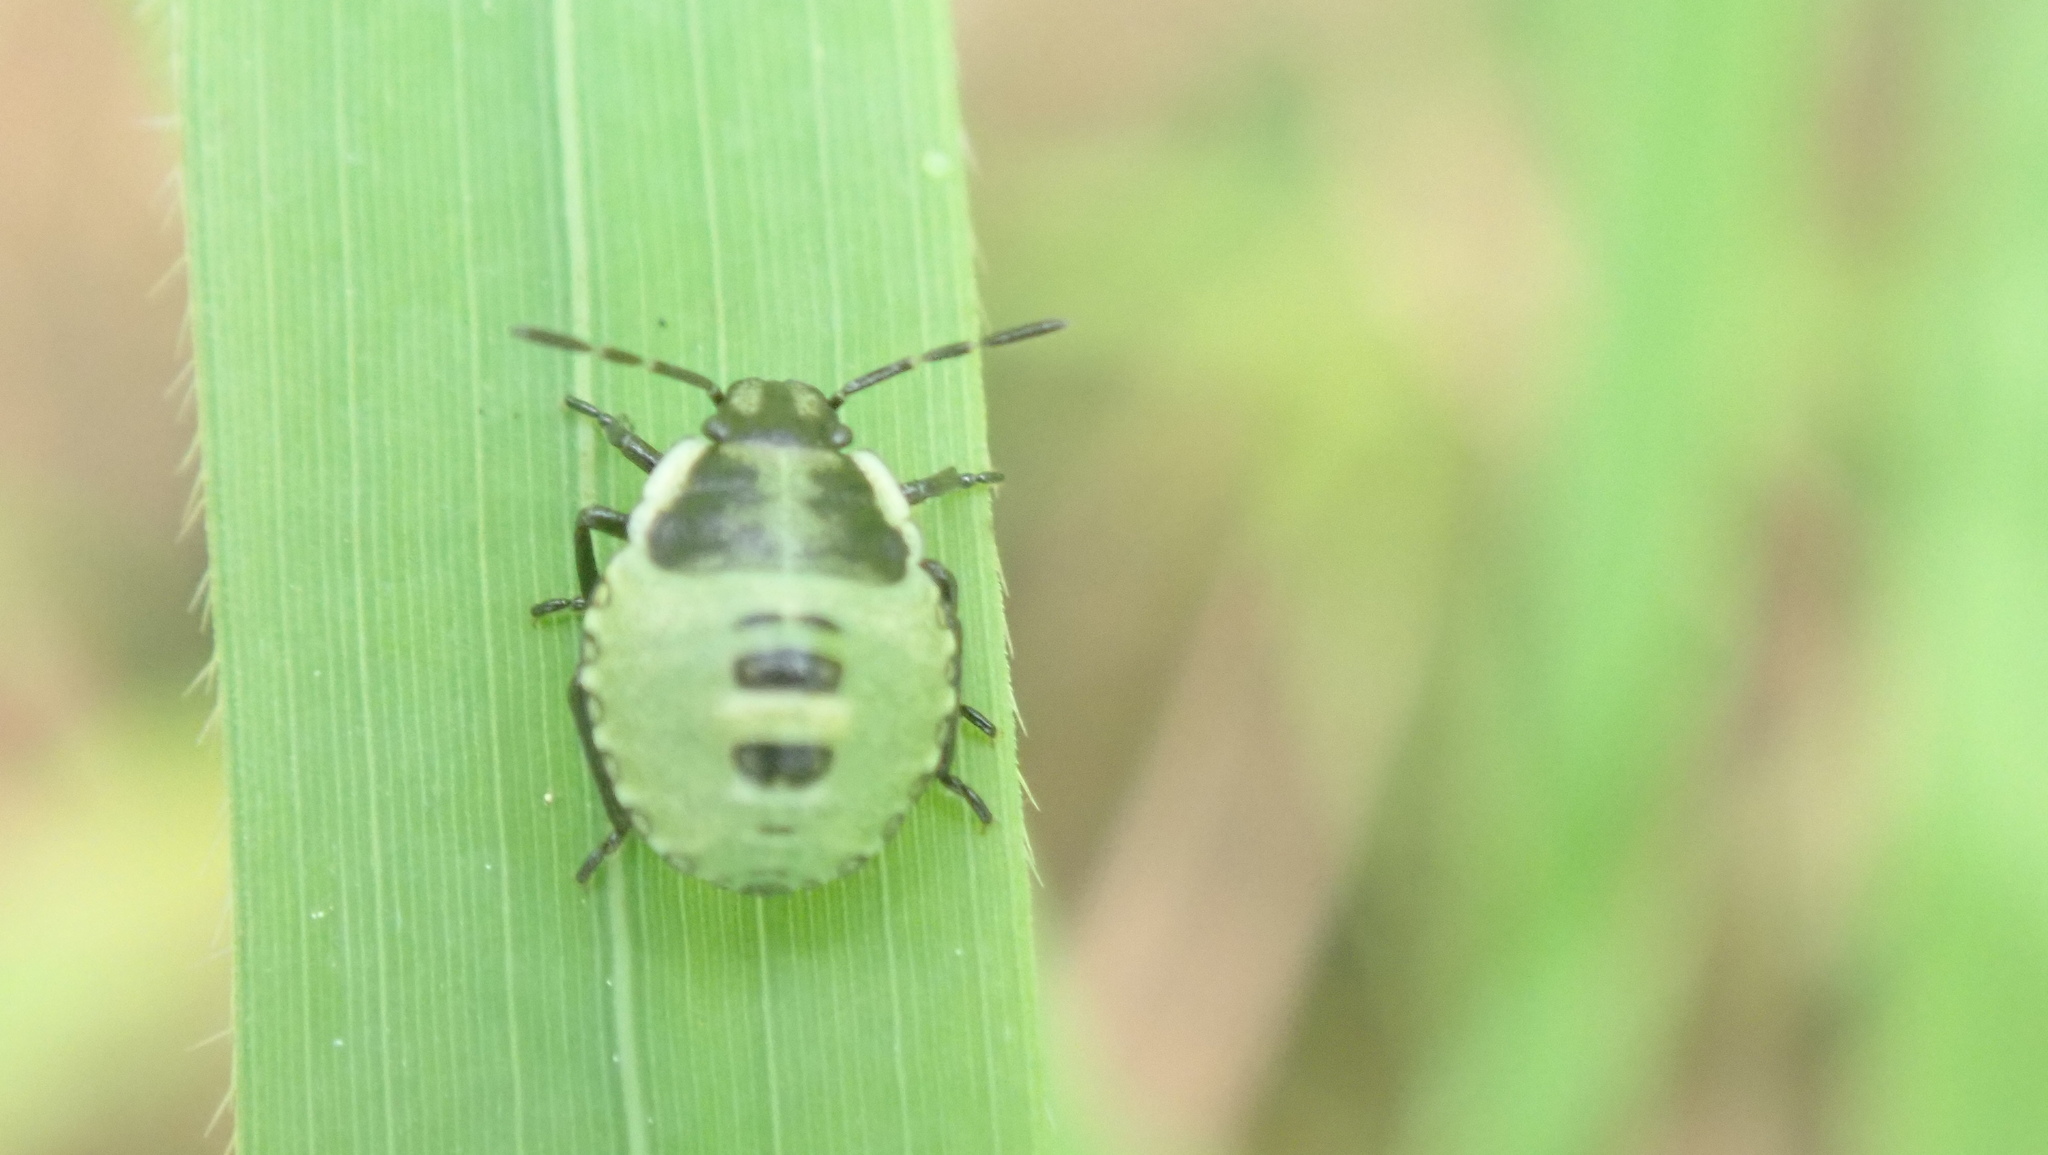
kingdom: Animalia
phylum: Arthropoda
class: Insecta
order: Hemiptera
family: Pentatomidae
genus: Palomena
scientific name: Palomena prasina
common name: Green shieldbug
